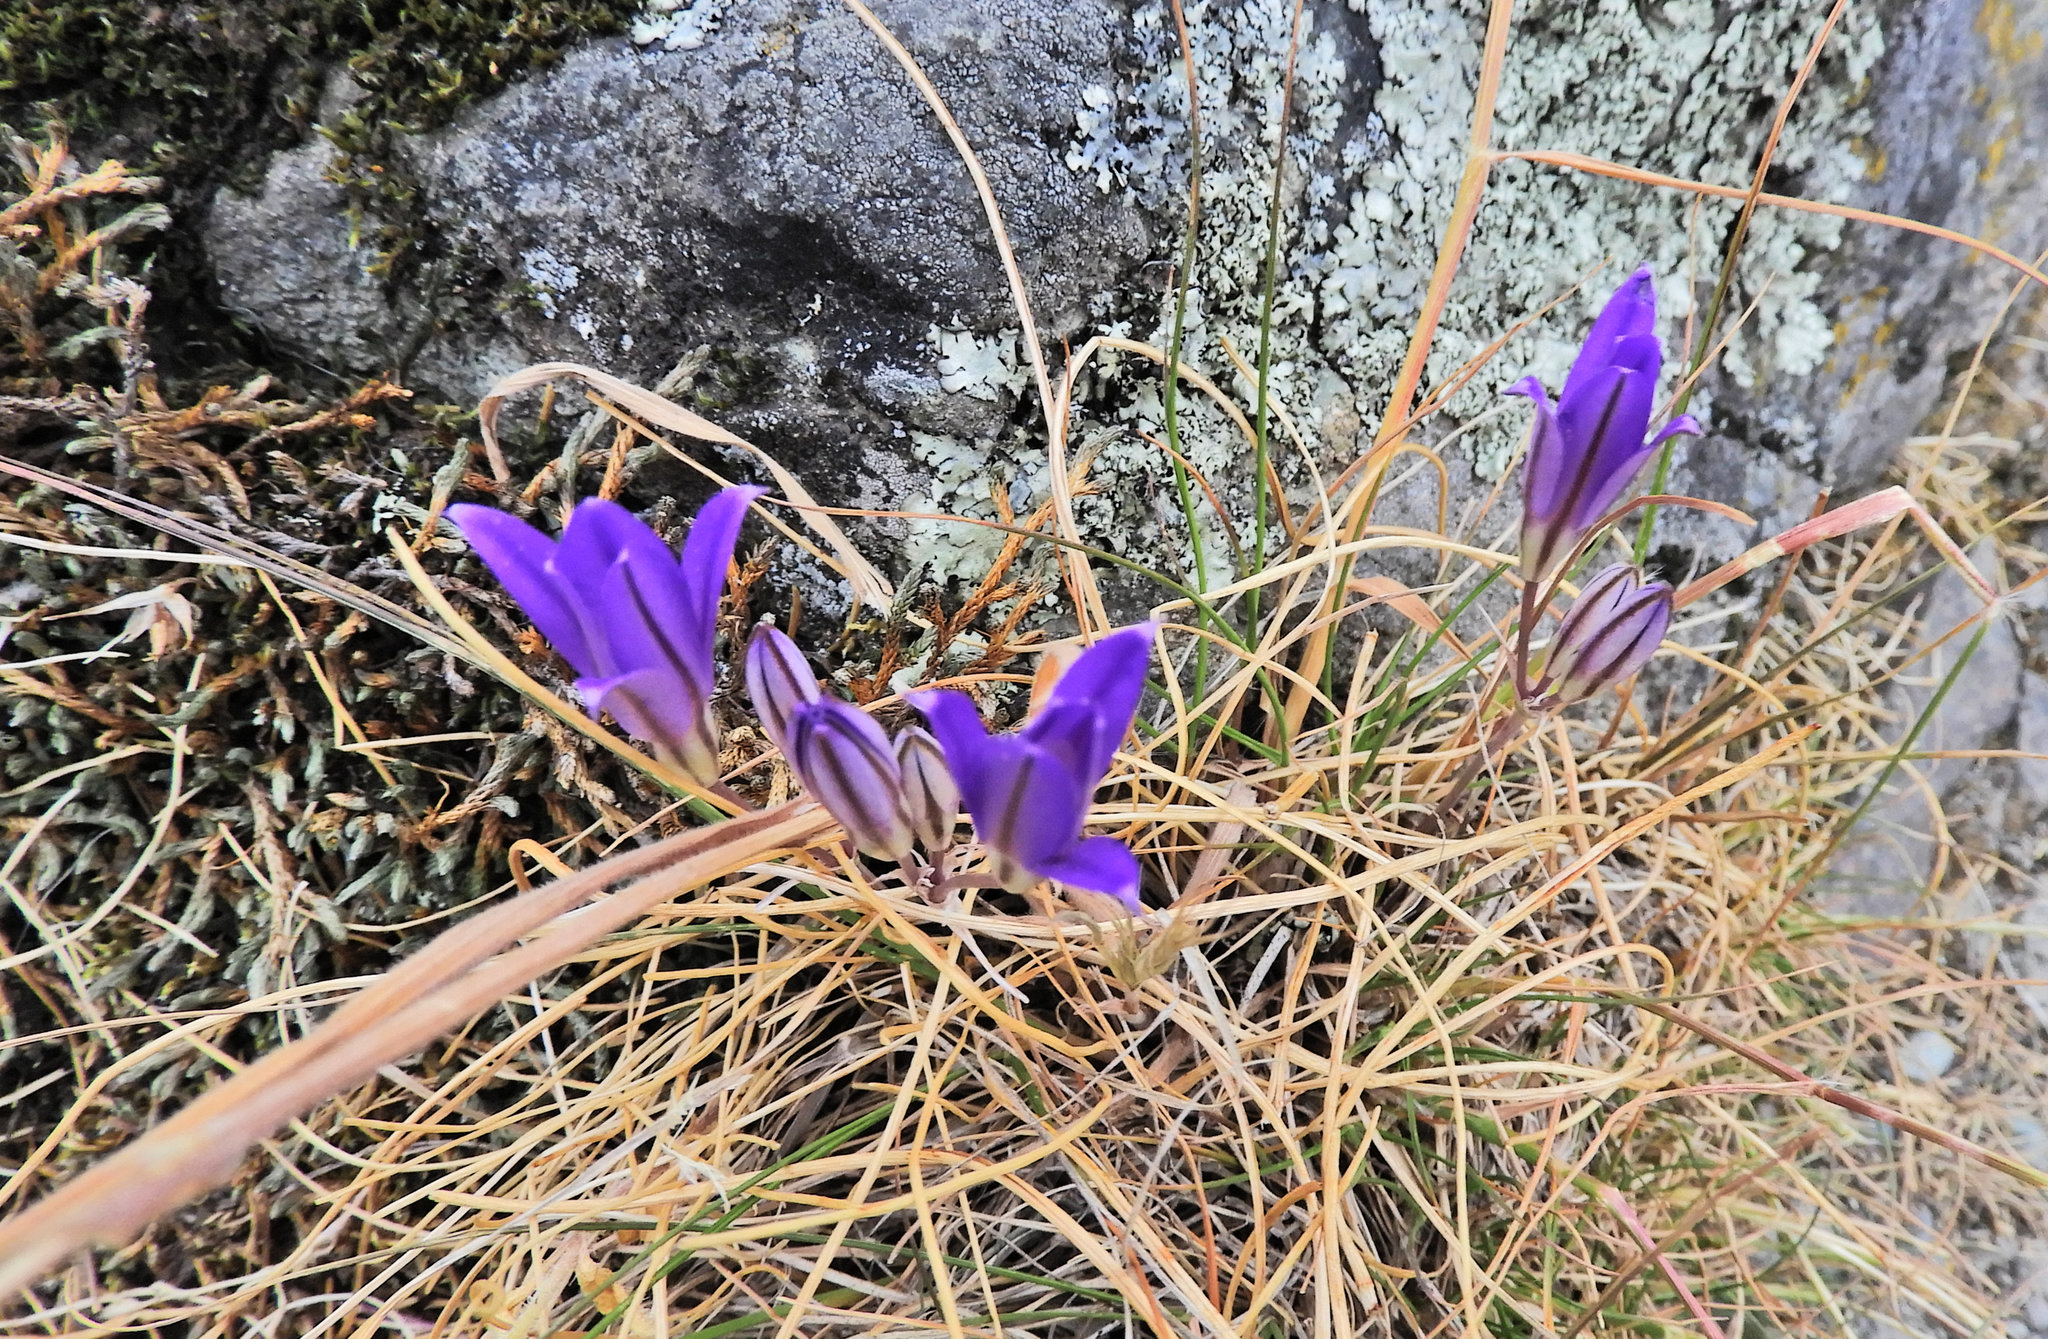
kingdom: Plantae
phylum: Tracheophyta
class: Liliopsida
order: Asparagales
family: Asparagaceae
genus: Brodiaea
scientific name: Brodiaea coronaria
